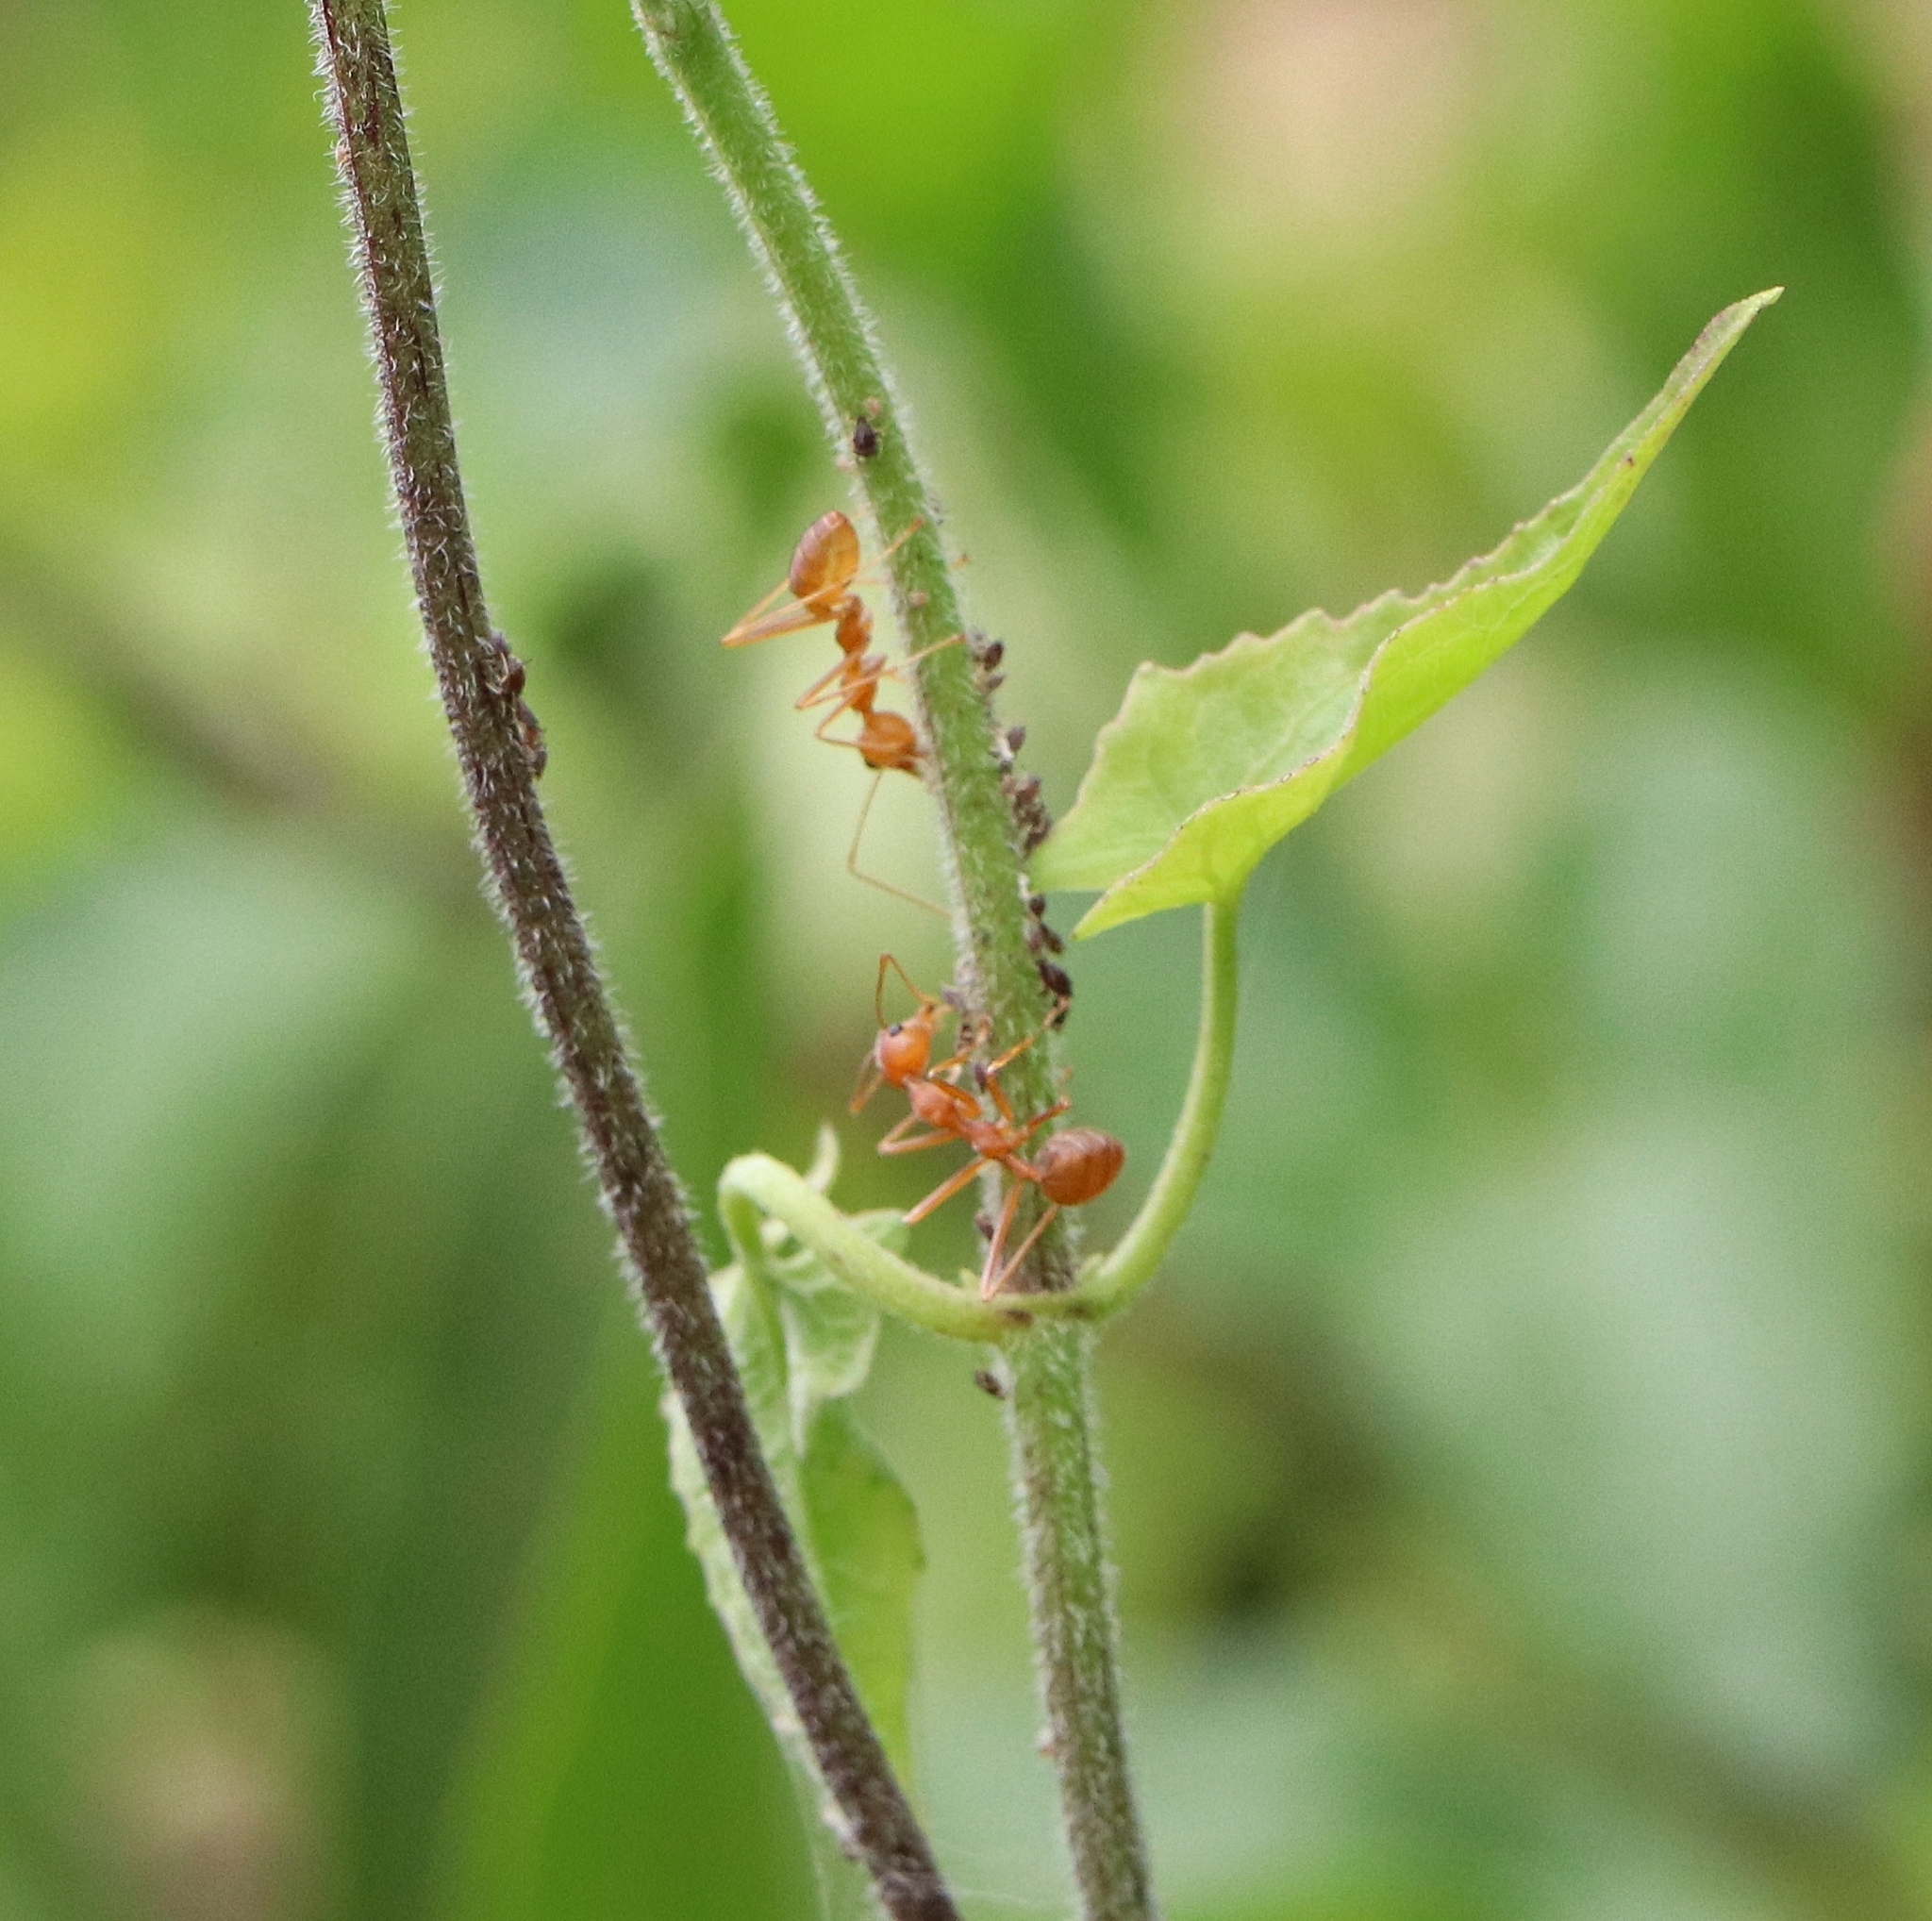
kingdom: Animalia
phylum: Arthropoda
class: Insecta
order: Hymenoptera
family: Formicidae
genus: Oecophylla
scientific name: Oecophylla smaragdina
